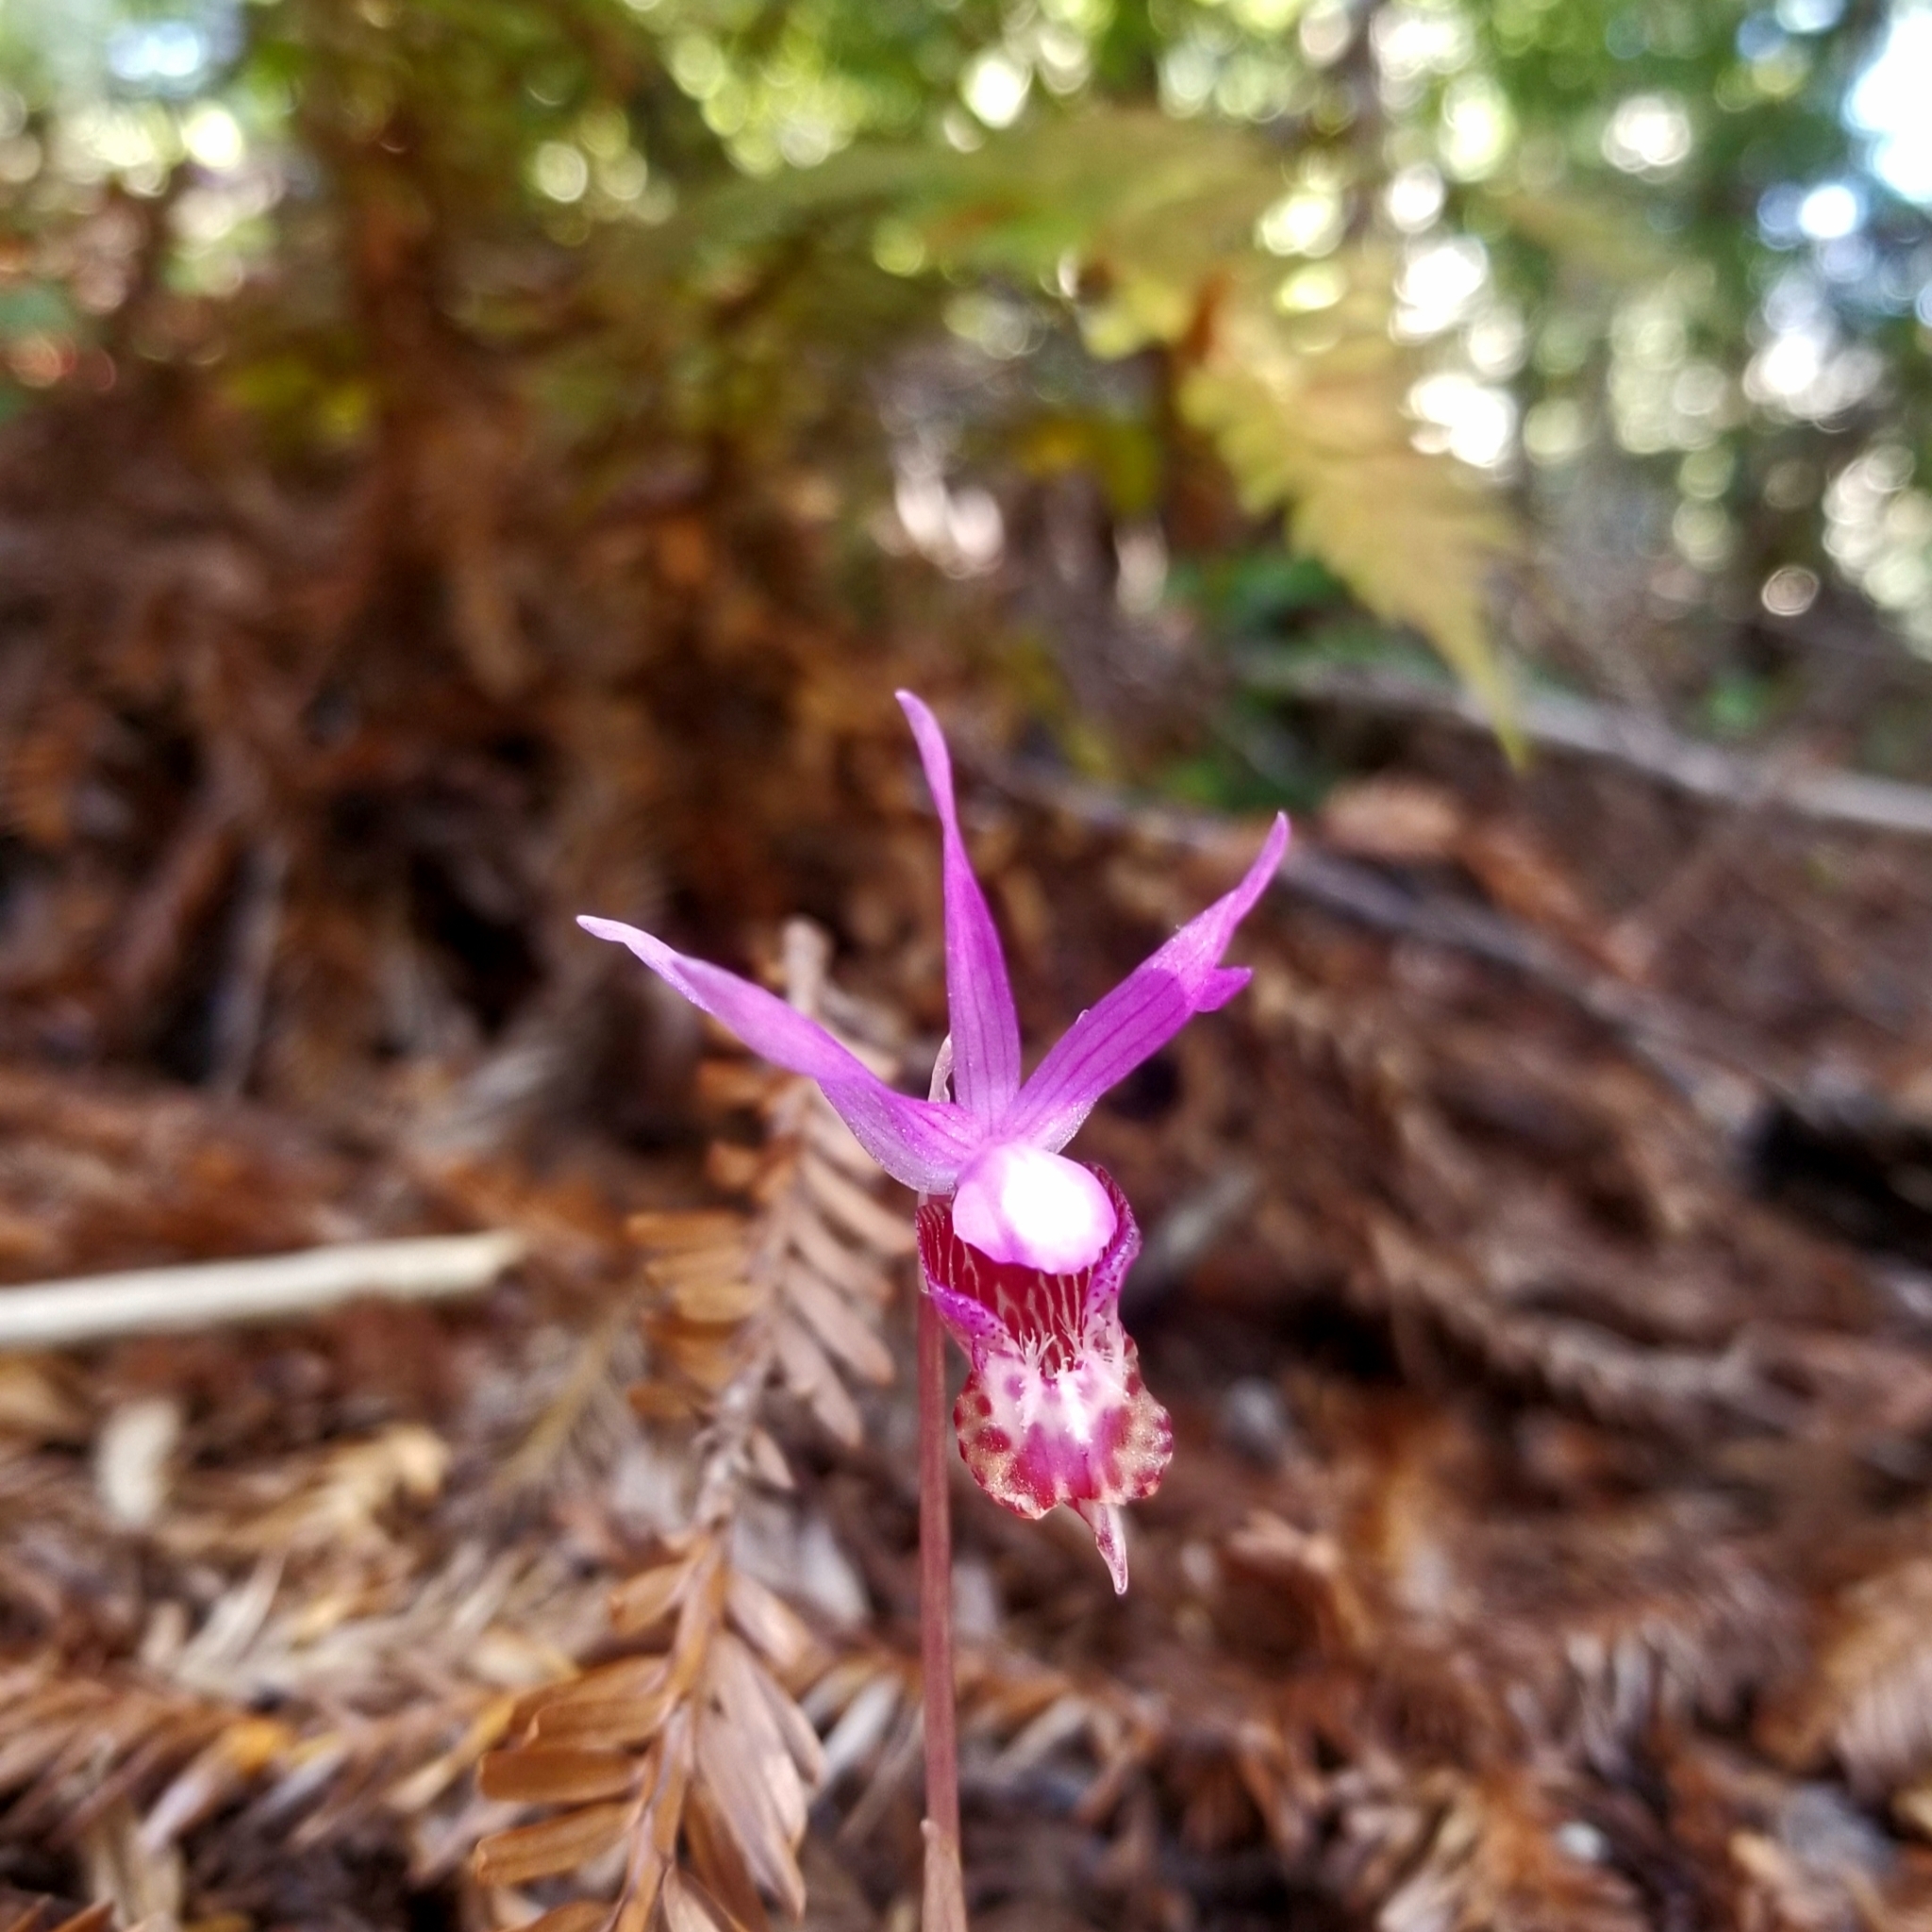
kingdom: Plantae
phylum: Tracheophyta
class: Liliopsida
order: Asparagales
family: Orchidaceae
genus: Calypso
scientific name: Calypso bulbosa
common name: Calypso
